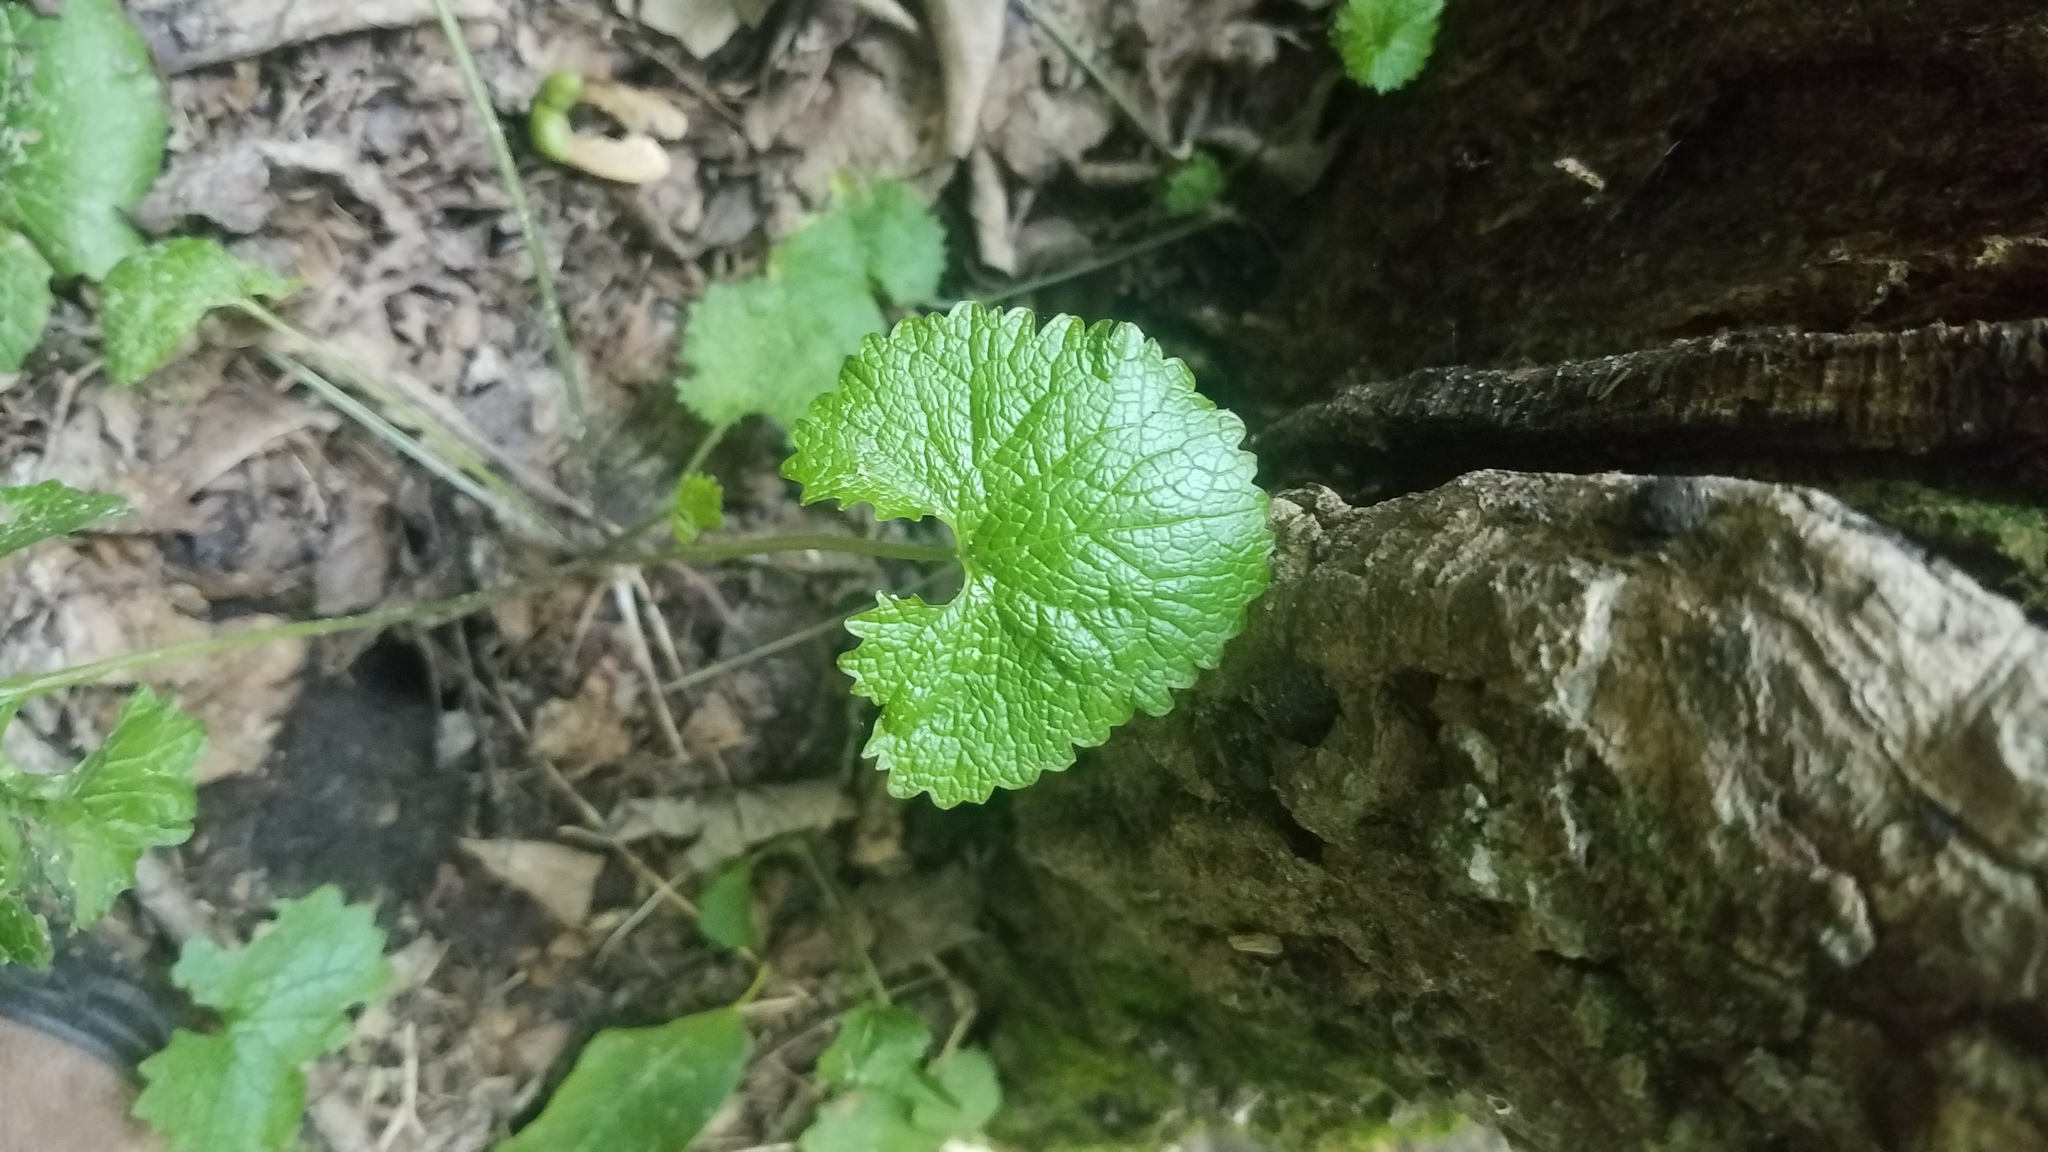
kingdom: Plantae
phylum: Tracheophyta
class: Magnoliopsida
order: Brassicales
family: Brassicaceae
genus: Alliaria
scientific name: Alliaria petiolata
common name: Garlic mustard
